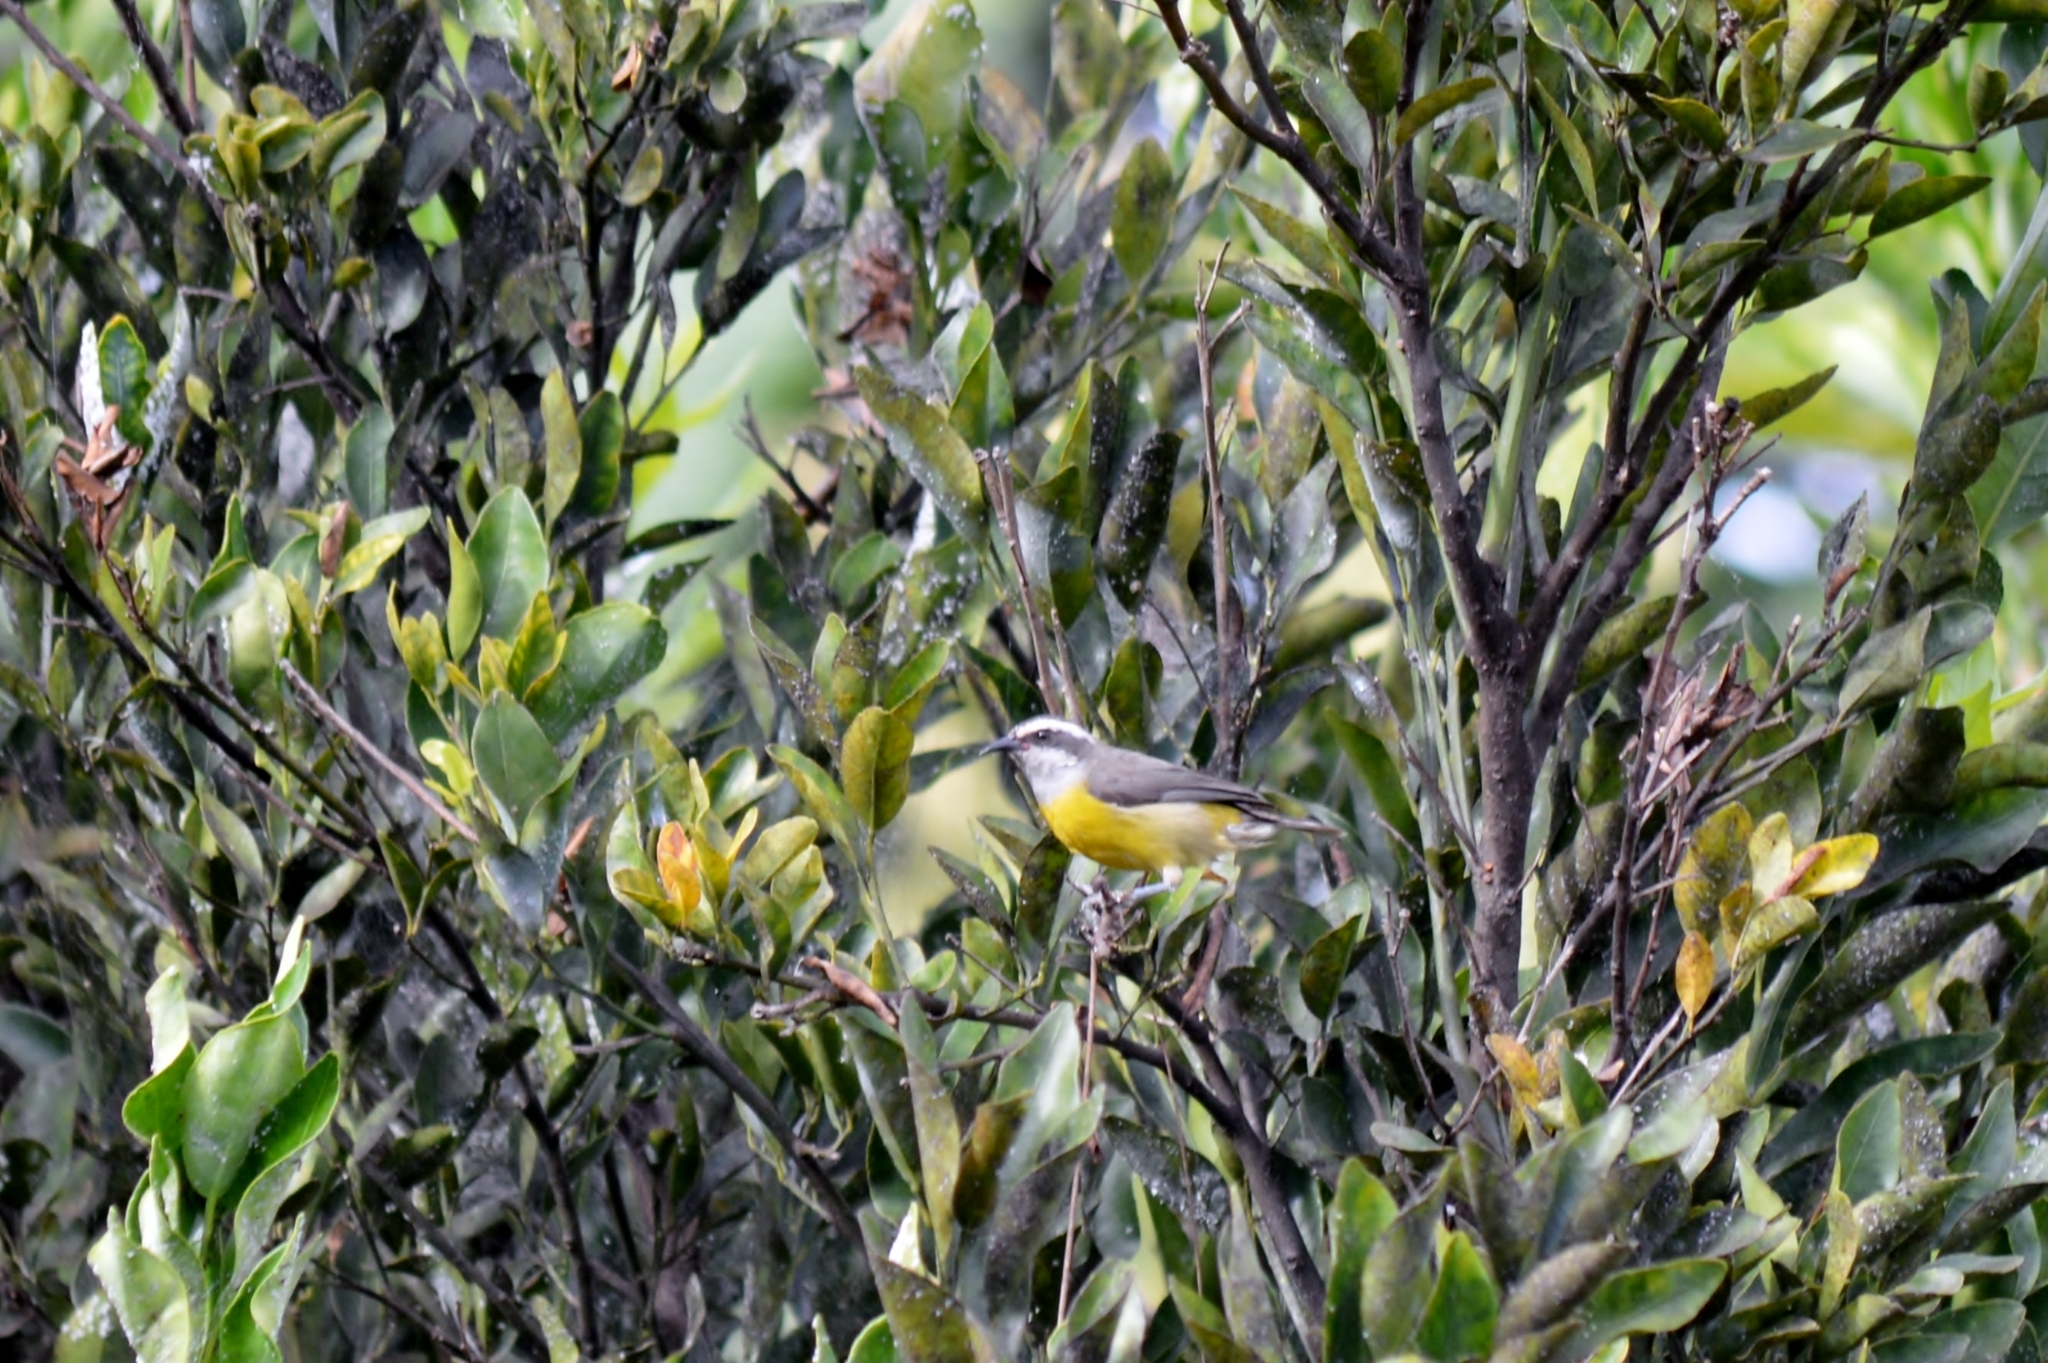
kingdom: Animalia
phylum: Chordata
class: Aves
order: Passeriformes
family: Thraupidae
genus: Coereba
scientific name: Coereba flaveola
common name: Bananaquit
